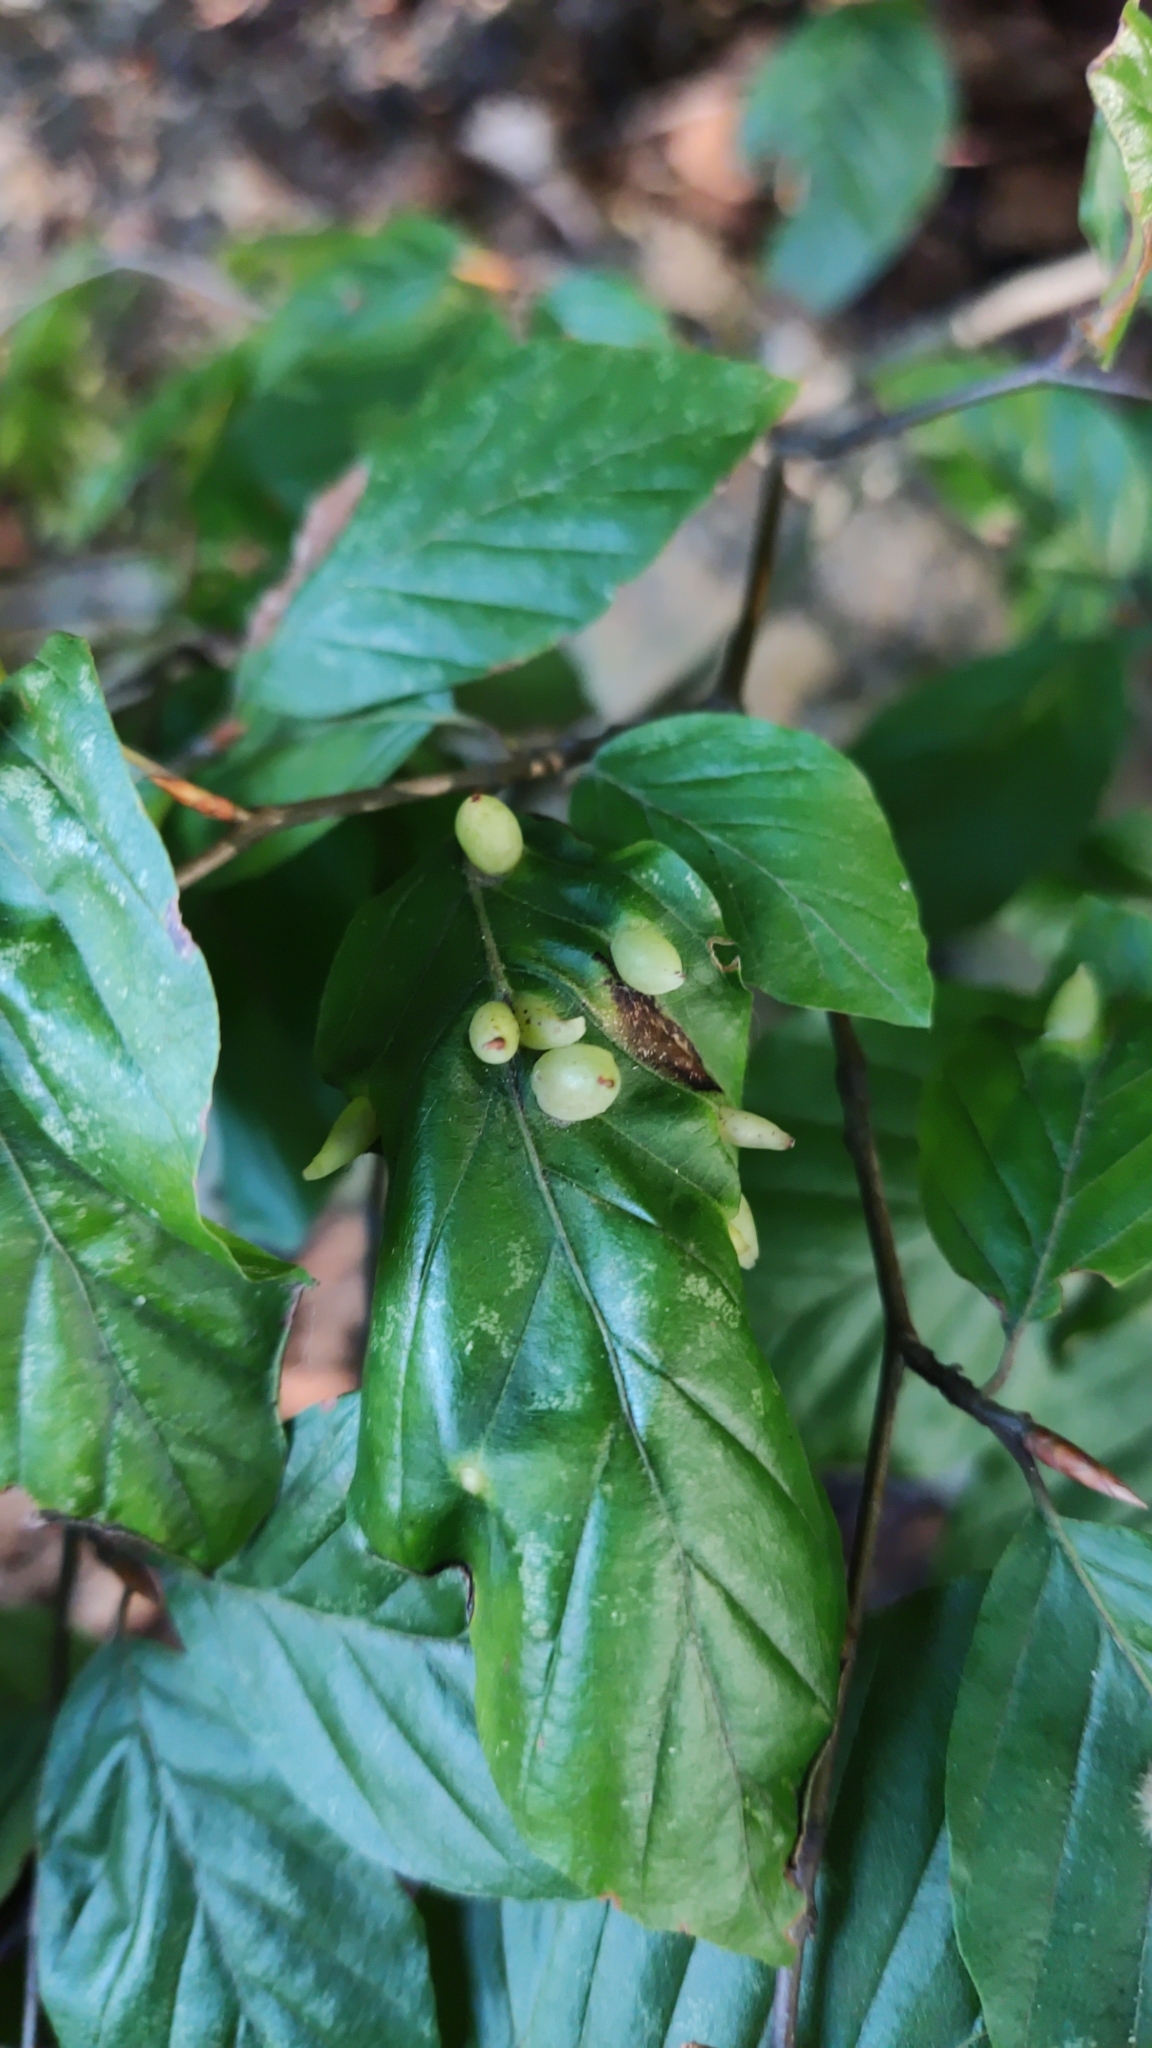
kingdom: Animalia
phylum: Arthropoda
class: Insecta
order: Diptera
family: Cecidomyiidae
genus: Mikiola
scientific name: Mikiola fagi
